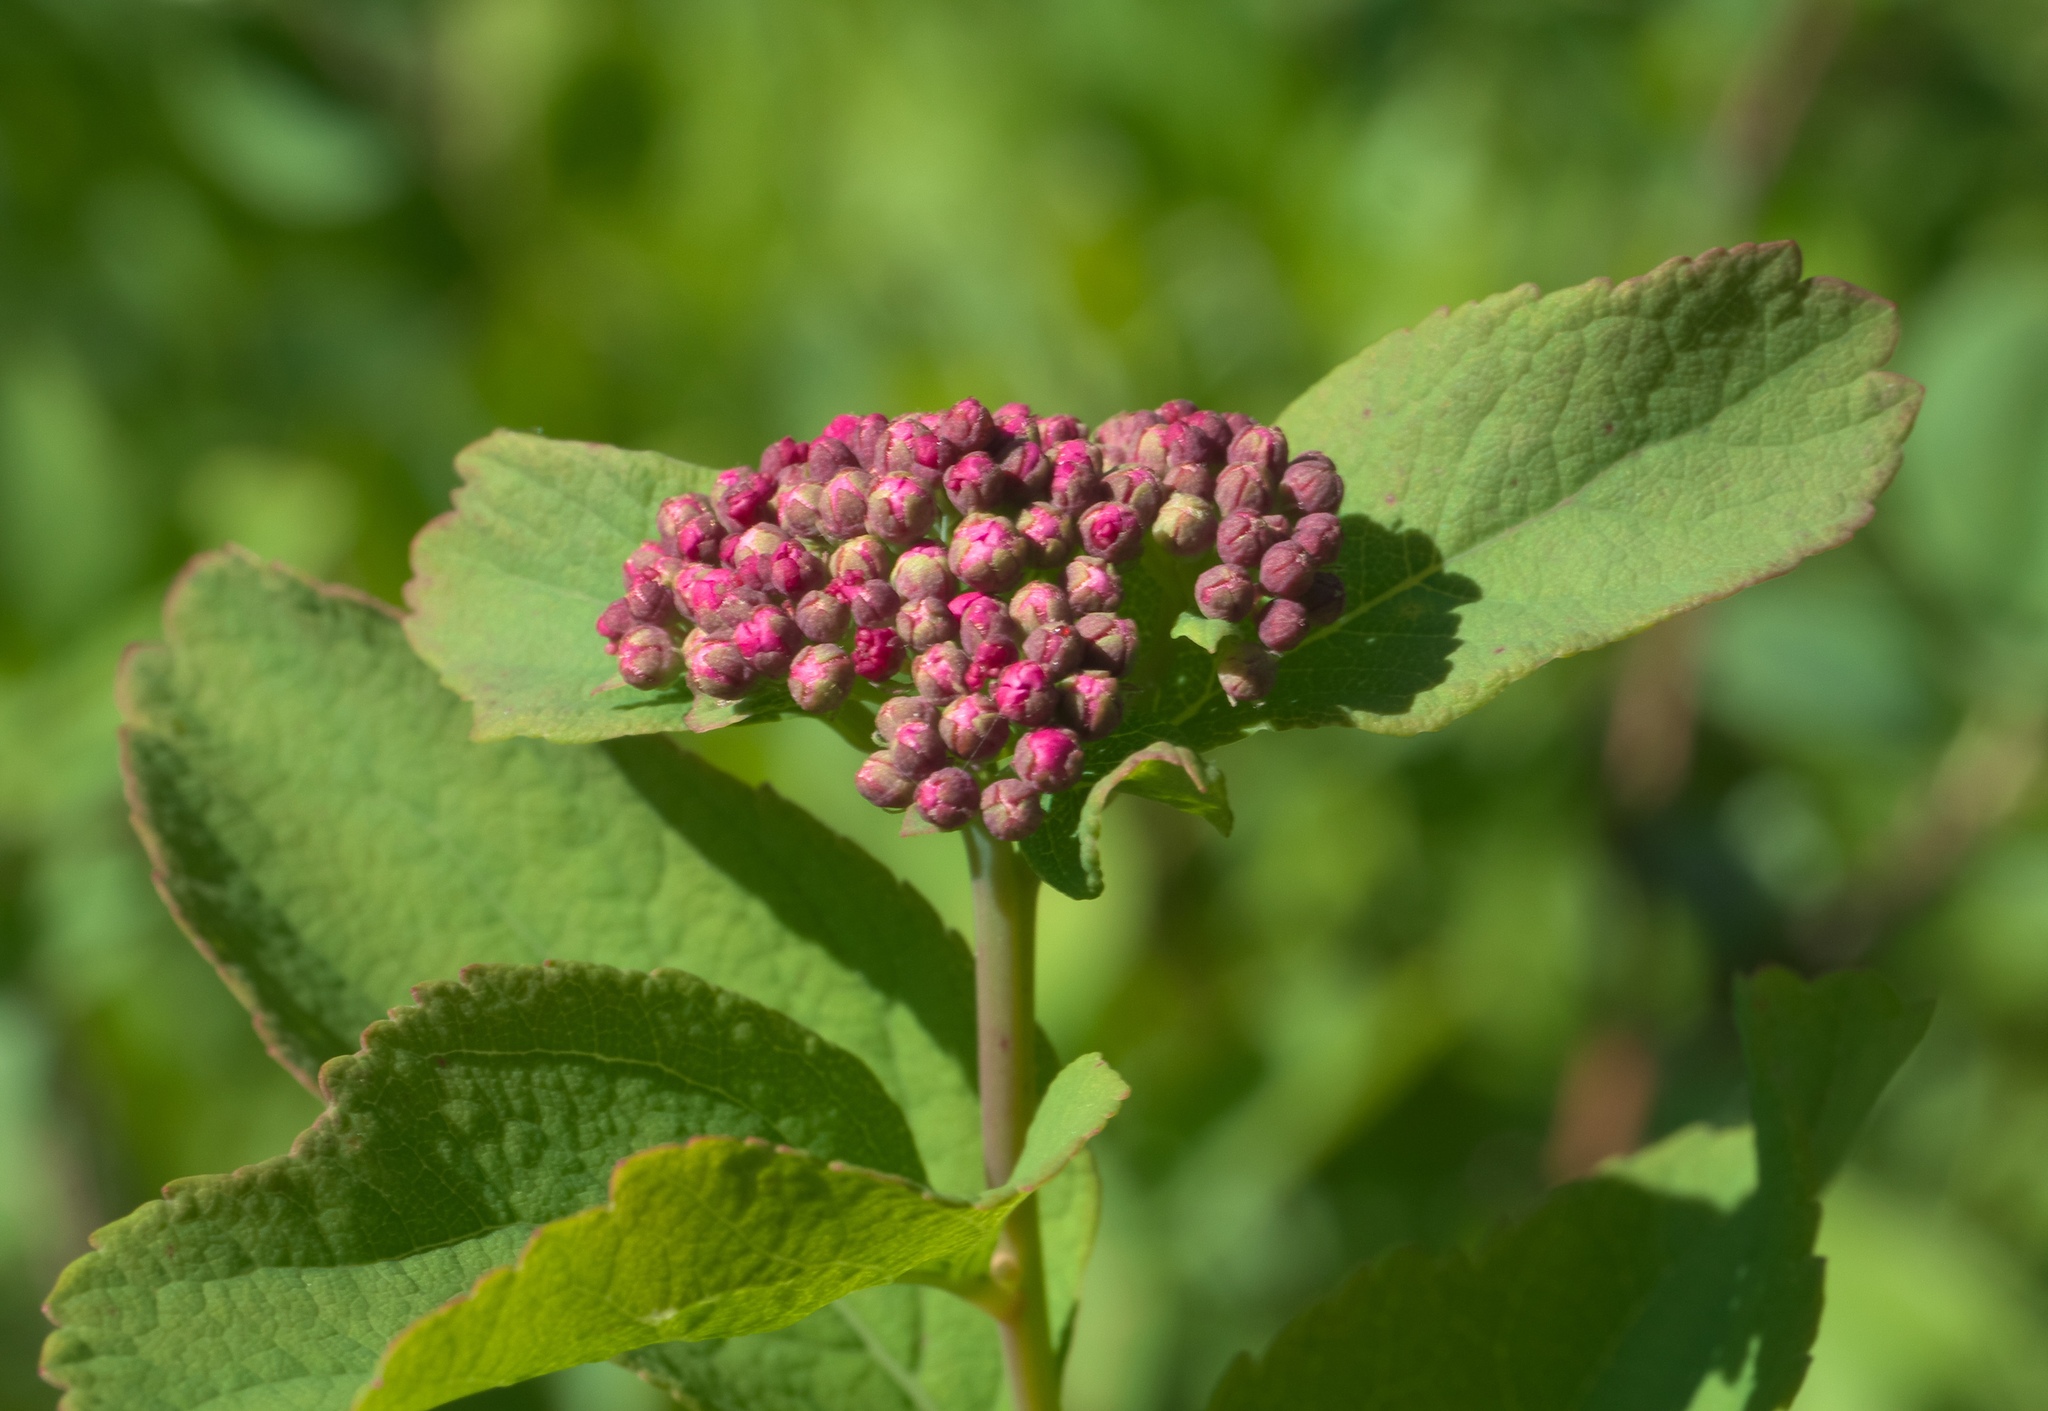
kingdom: Plantae
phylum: Tracheophyta
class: Magnoliopsida
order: Rosales
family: Rosaceae
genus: Spiraea
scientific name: Spiraea splendens
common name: Subalpine meadowsweet
